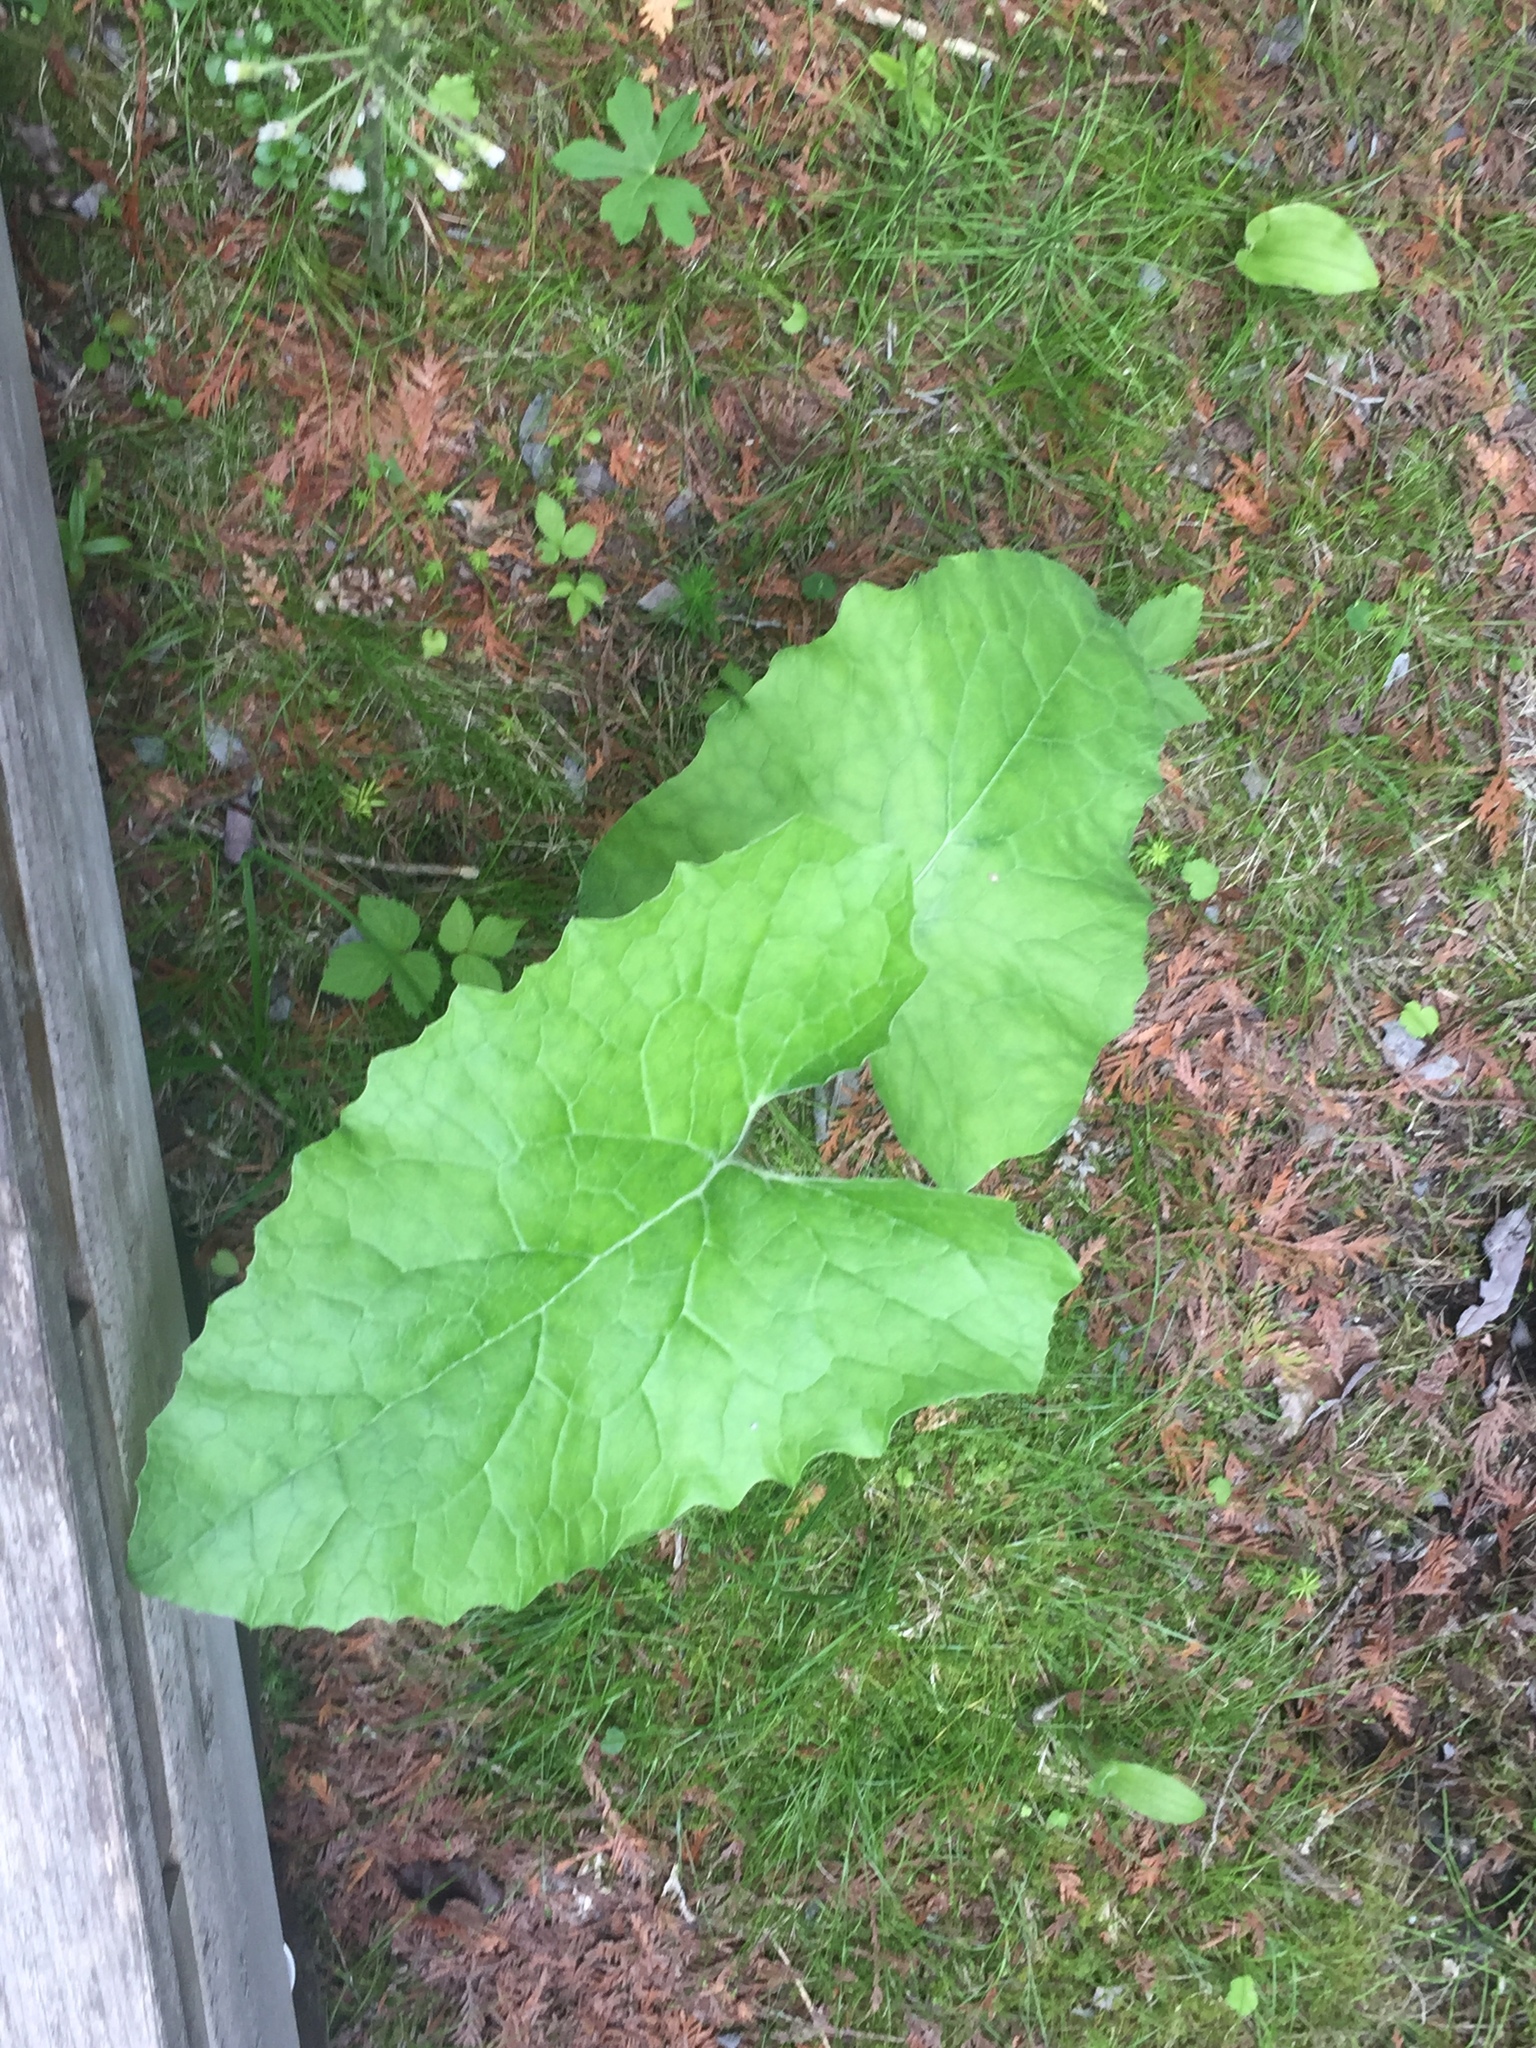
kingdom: Plantae
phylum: Tracheophyta
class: Magnoliopsida
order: Asterales
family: Asteraceae
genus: Petasites
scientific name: Petasites frigidus
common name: Arctic butterbur
